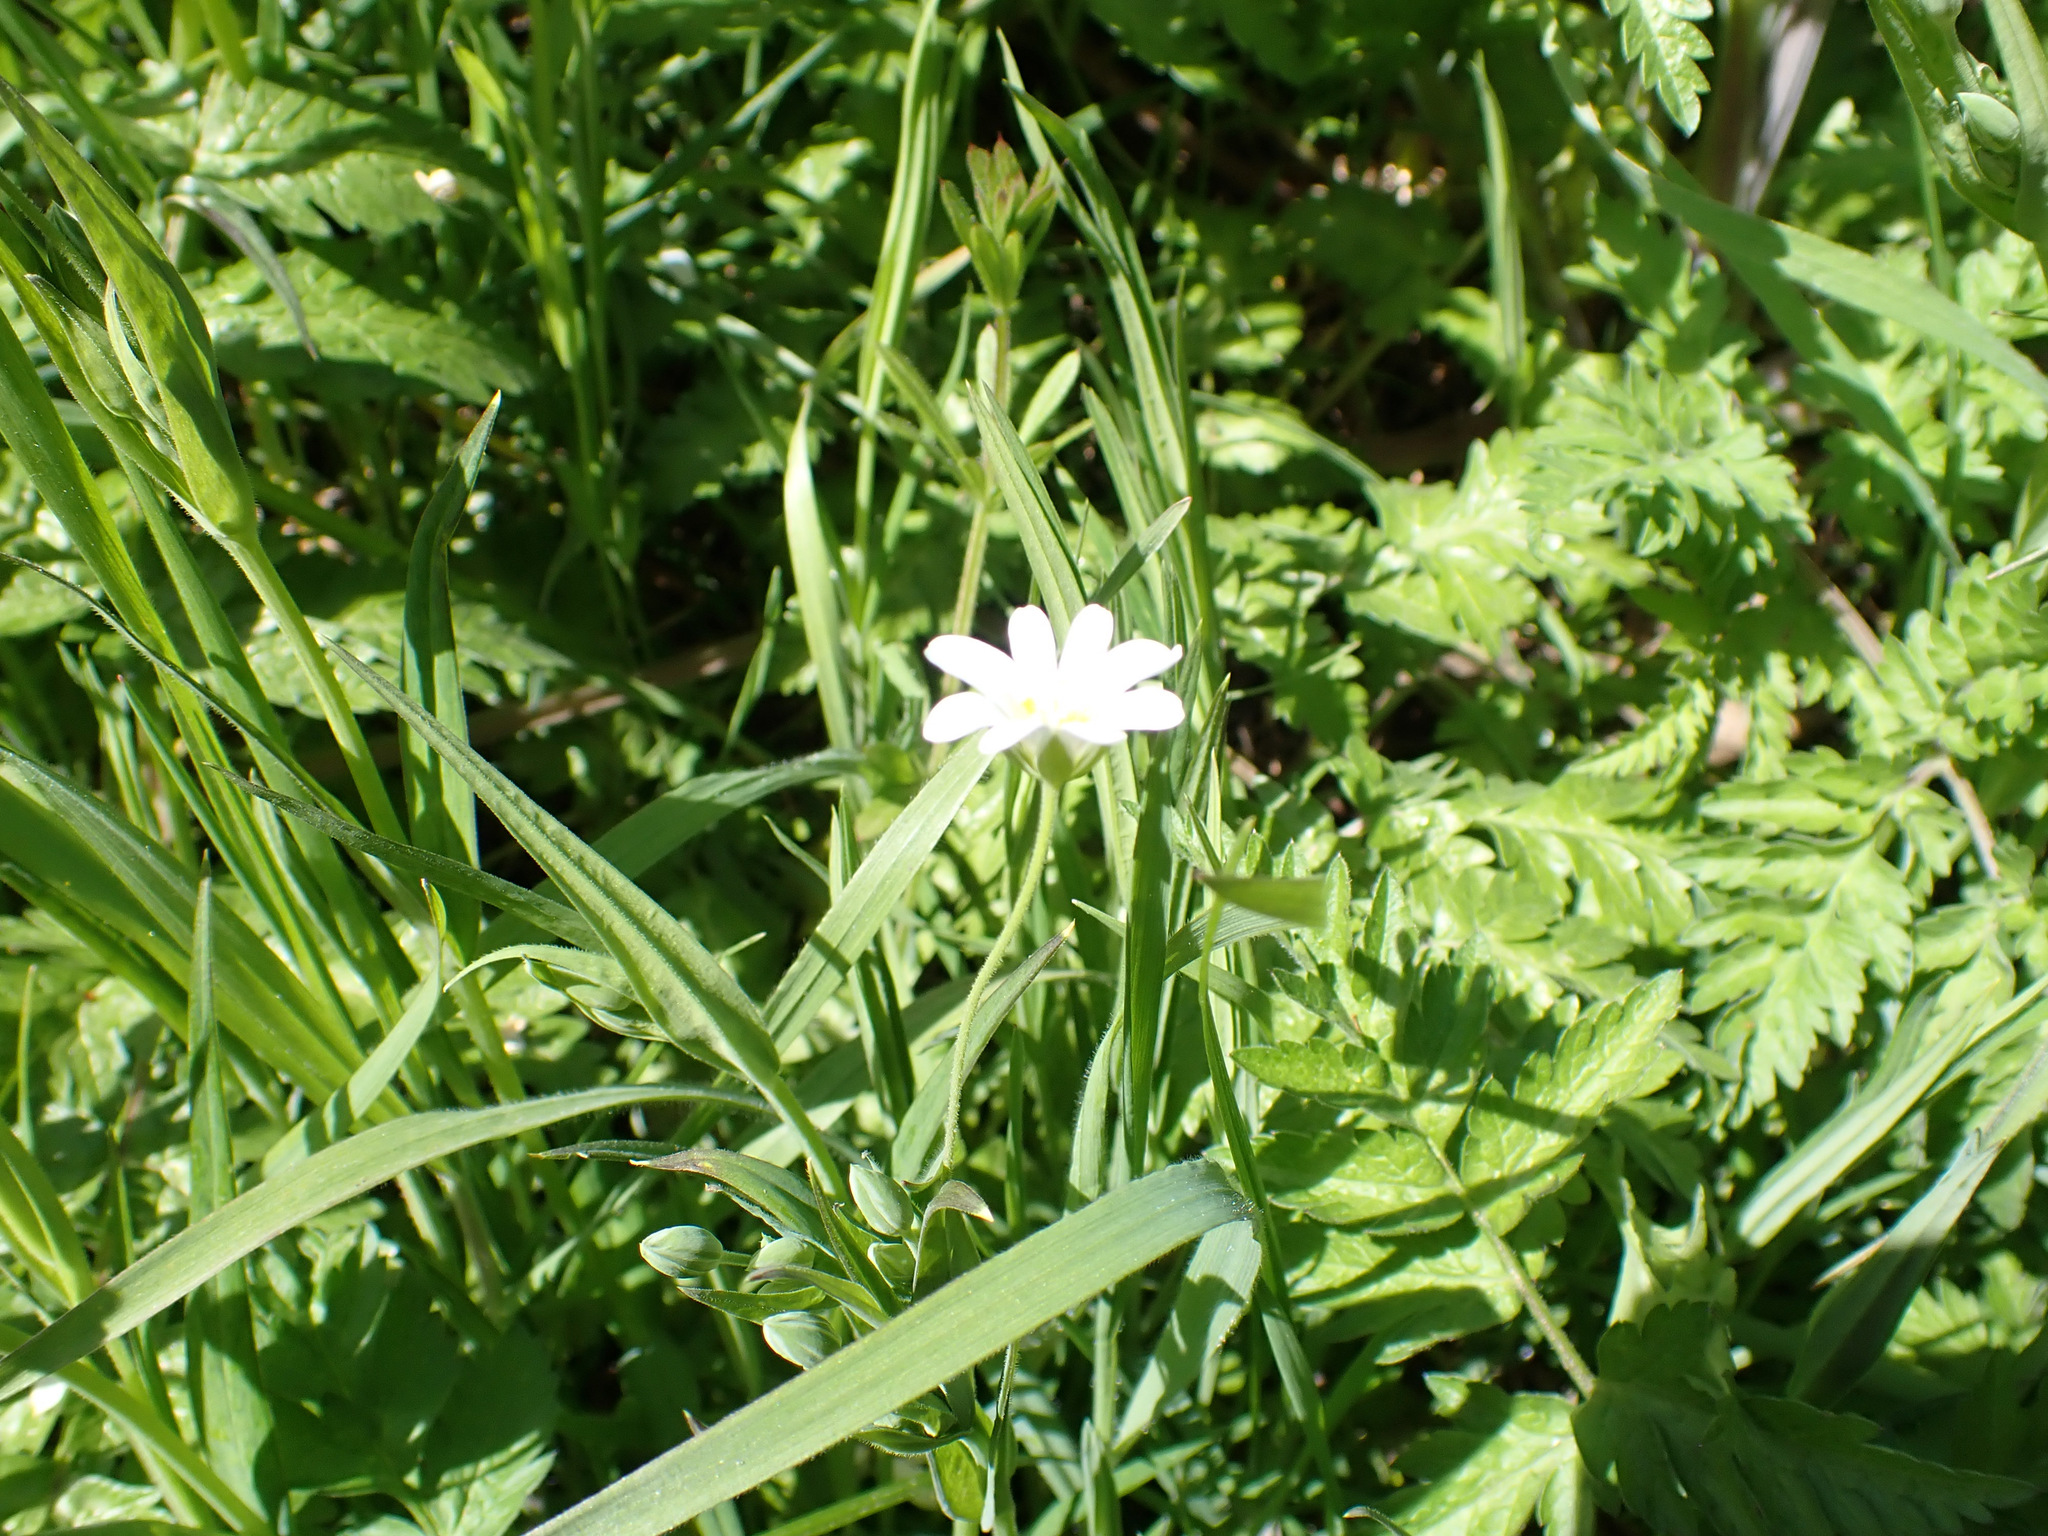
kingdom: Plantae
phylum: Tracheophyta
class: Magnoliopsida
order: Caryophyllales
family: Caryophyllaceae
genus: Rabelera
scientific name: Rabelera holostea
